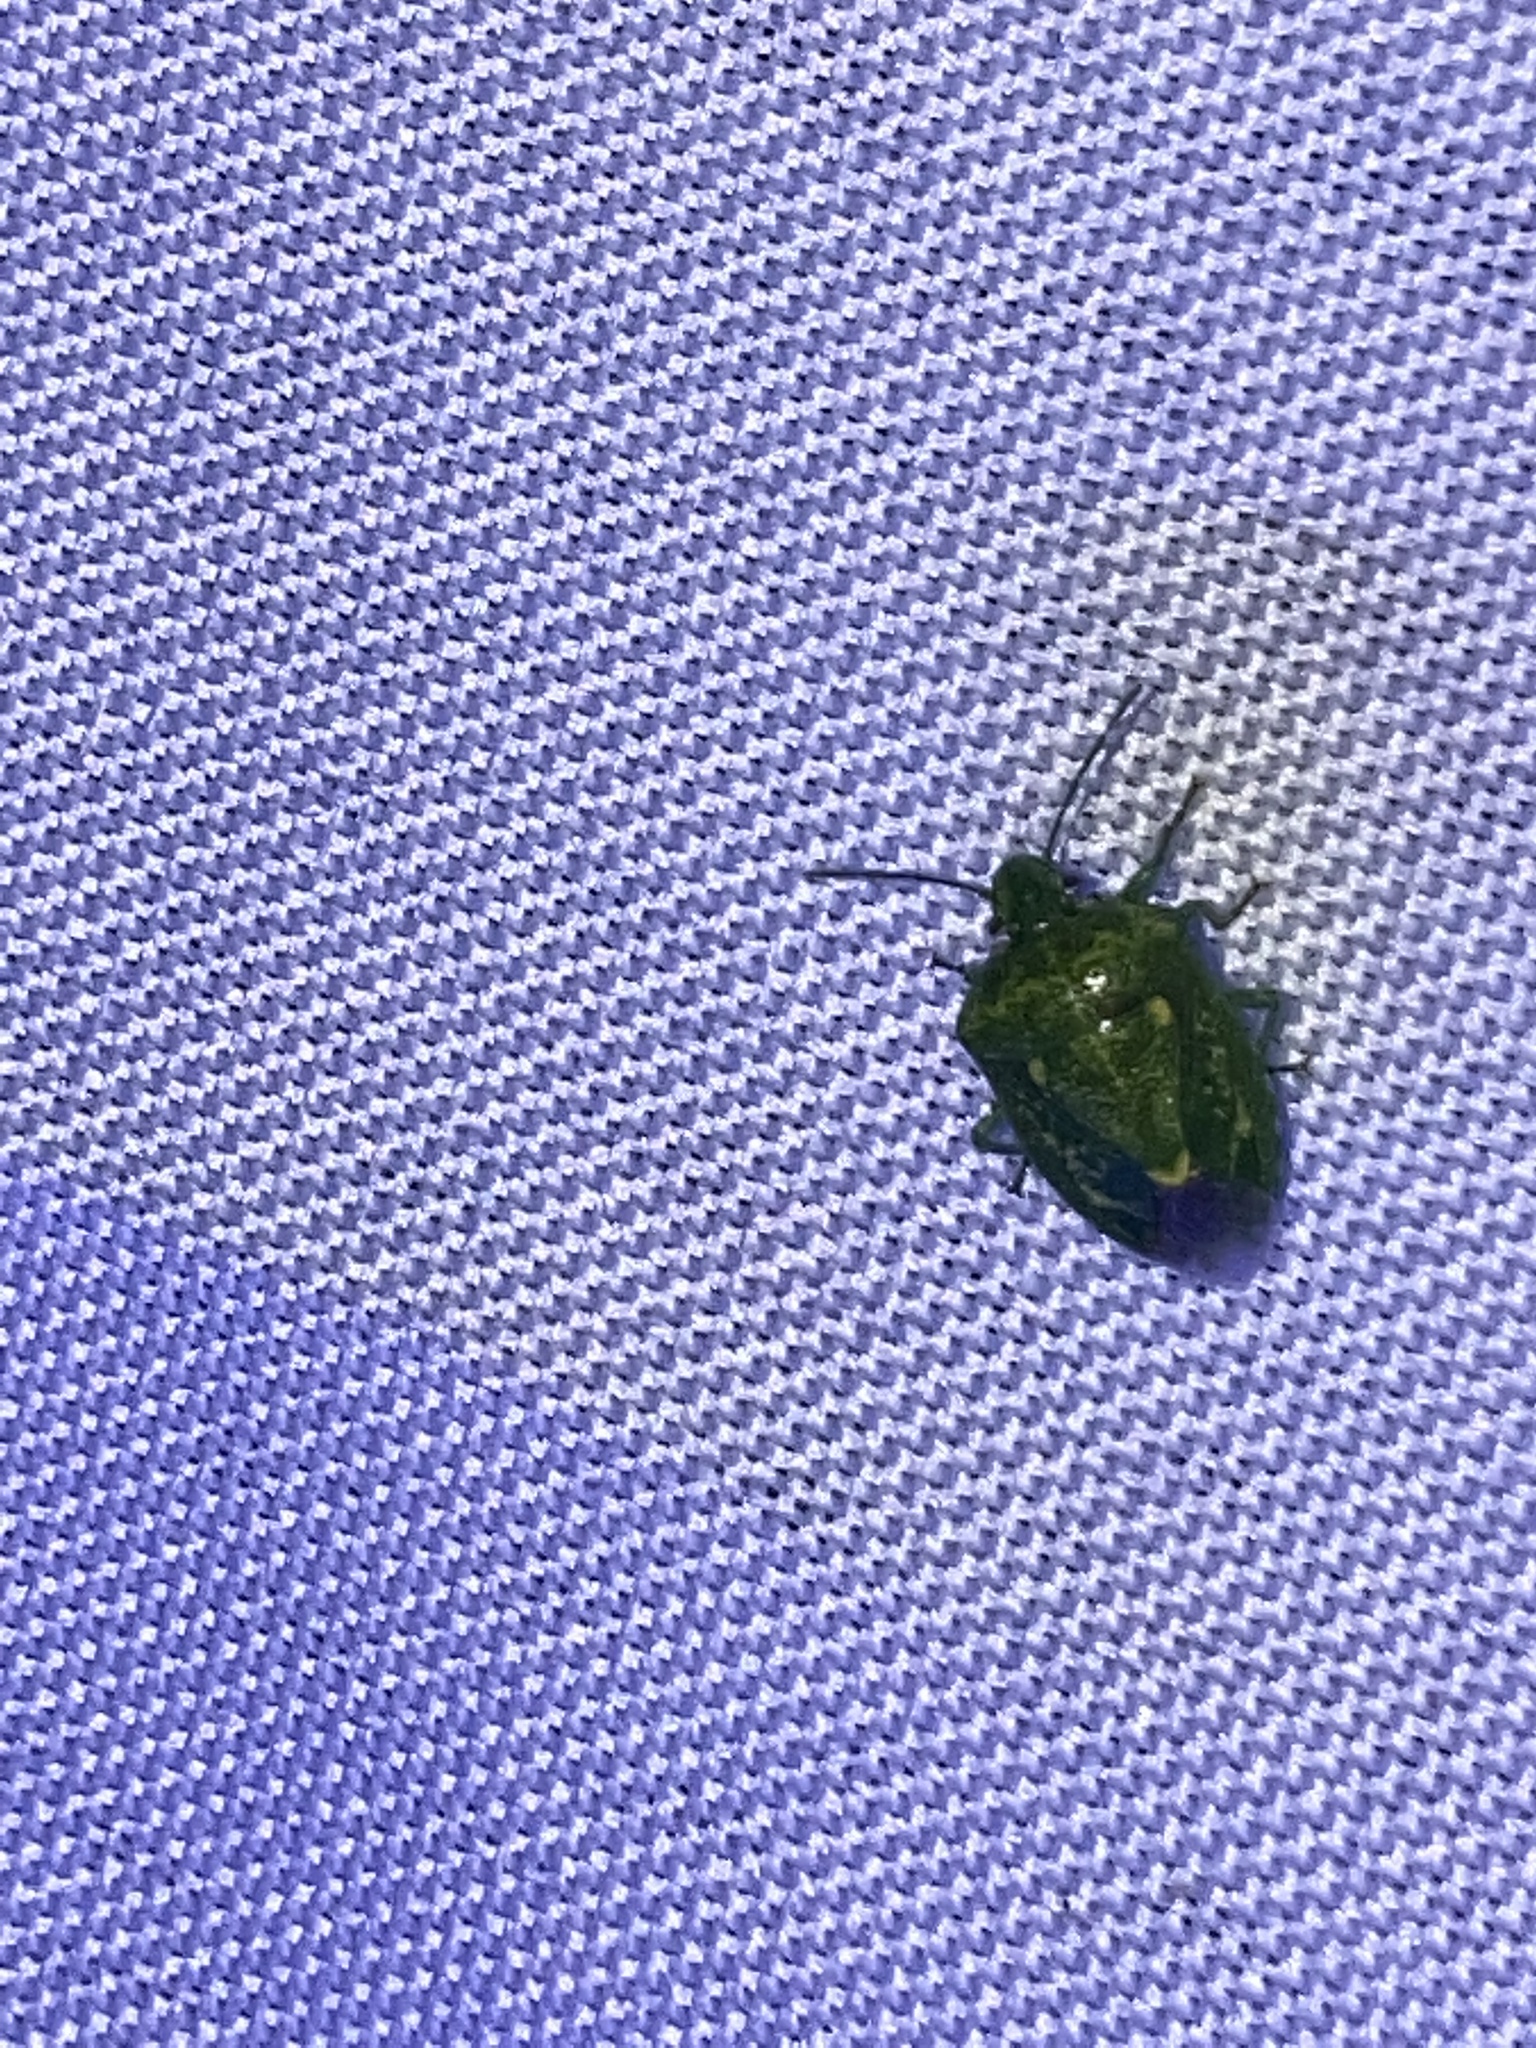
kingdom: Animalia
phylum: Arthropoda
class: Insecta
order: Hemiptera
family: Pentatomidae
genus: Banasa
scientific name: Banasa euchlora
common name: Cedar berry bug
